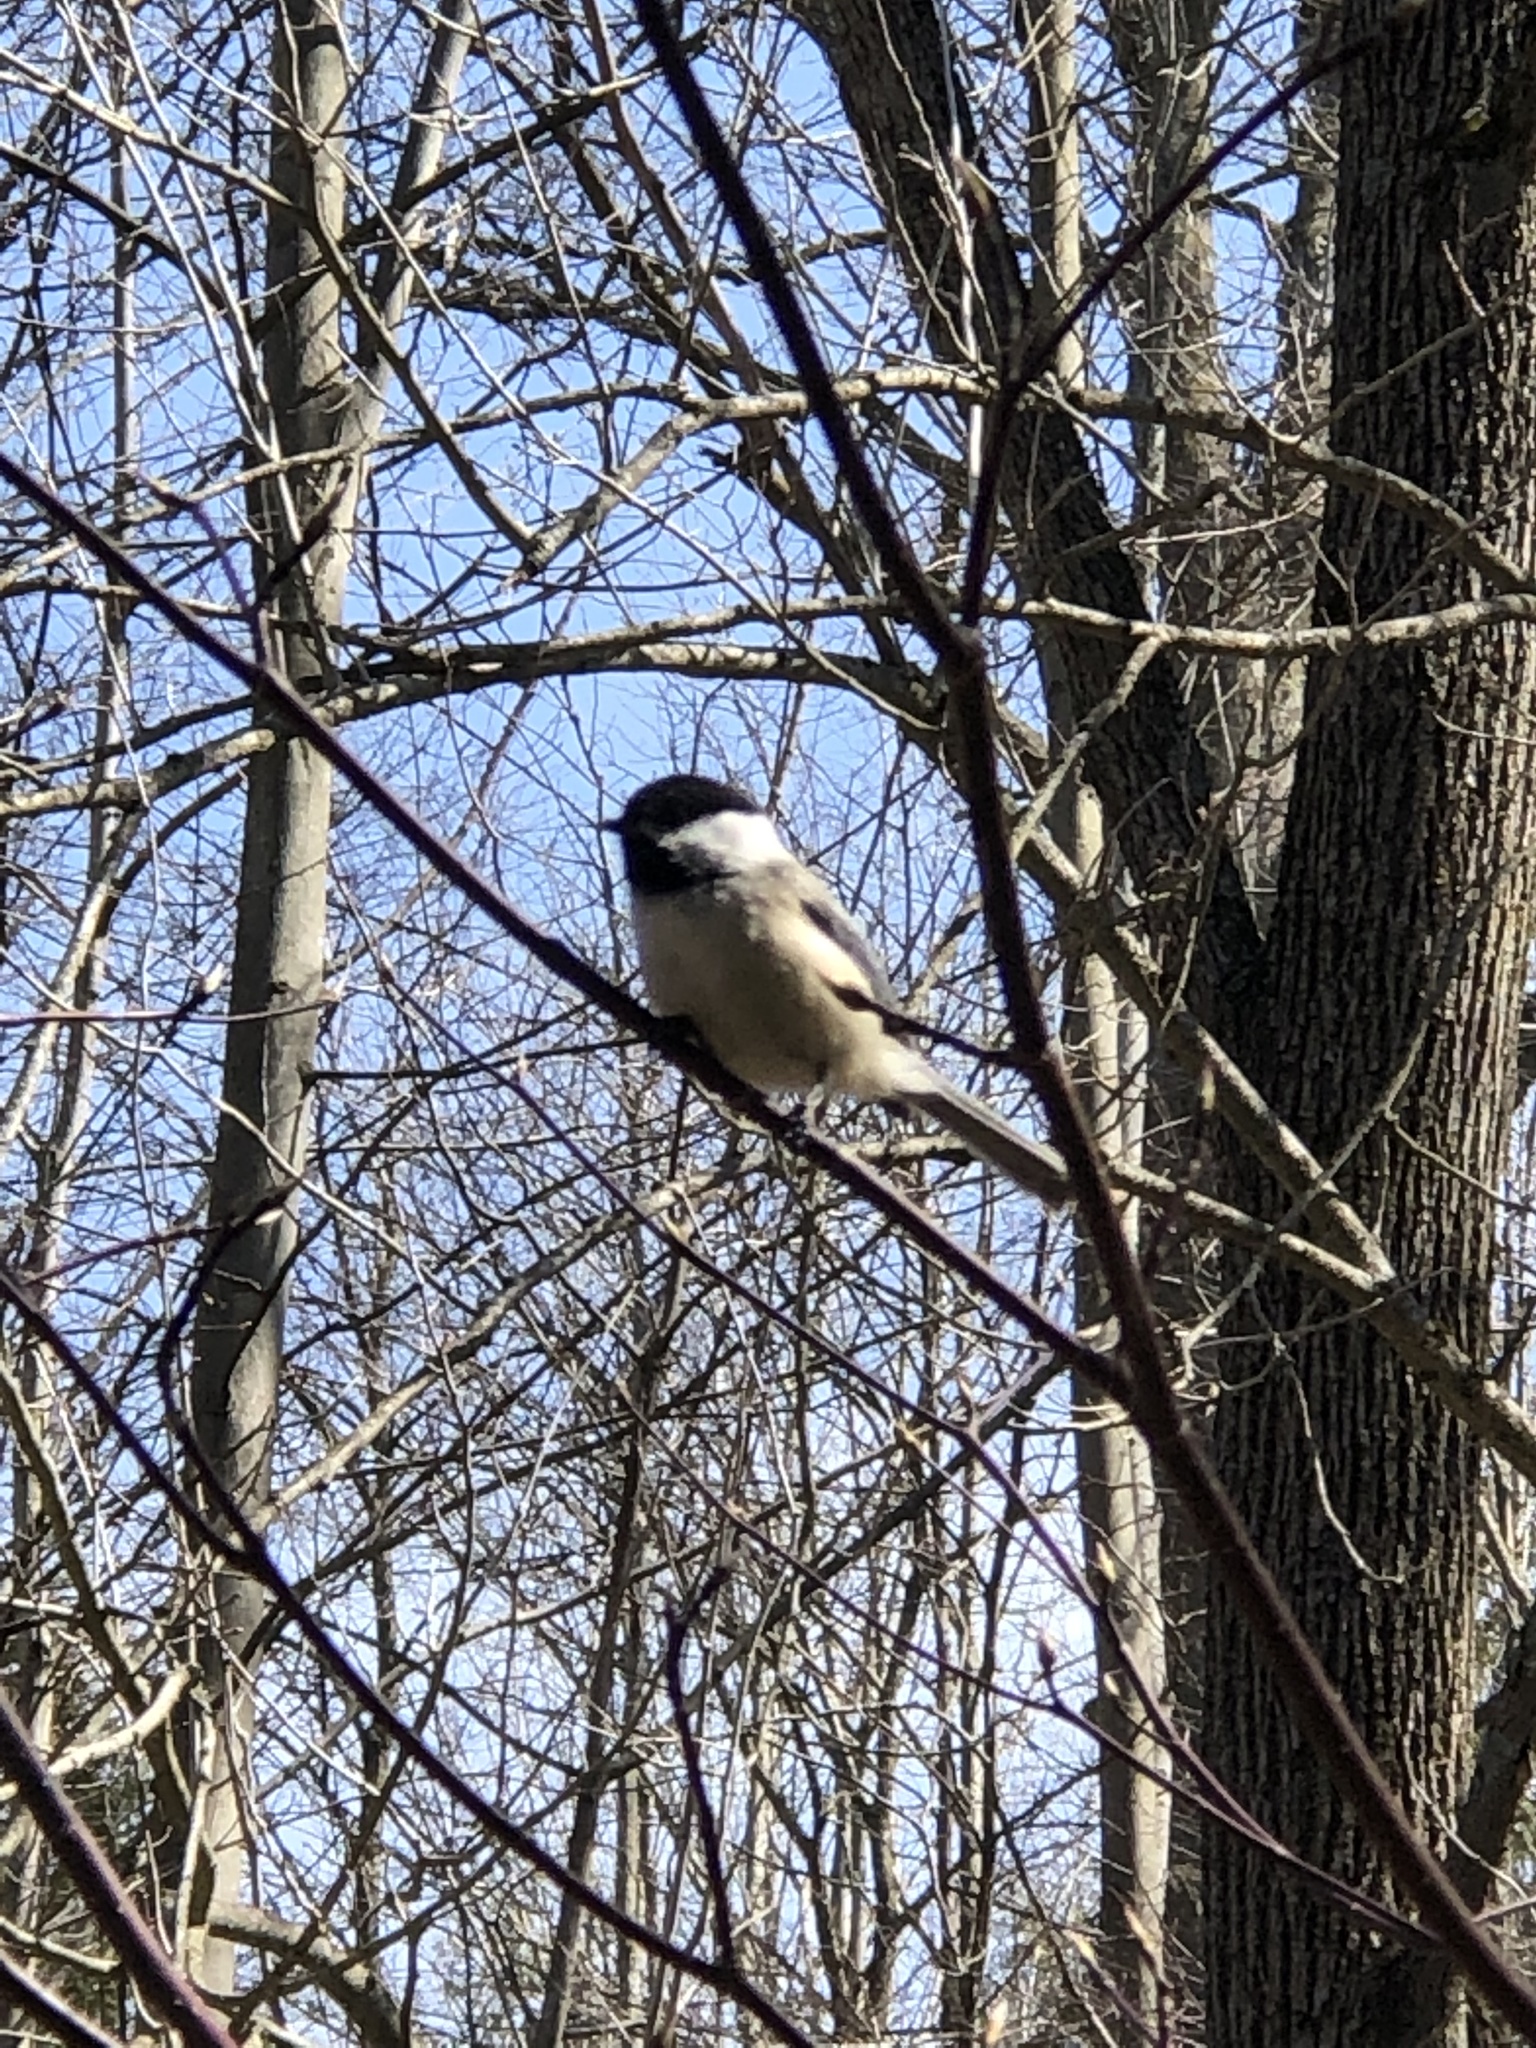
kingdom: Animalia
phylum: Chordata
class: Aves
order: Passeriformes
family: Paridae
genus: Poecile
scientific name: Poecile atricapillus
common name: Black-capped chickadee
